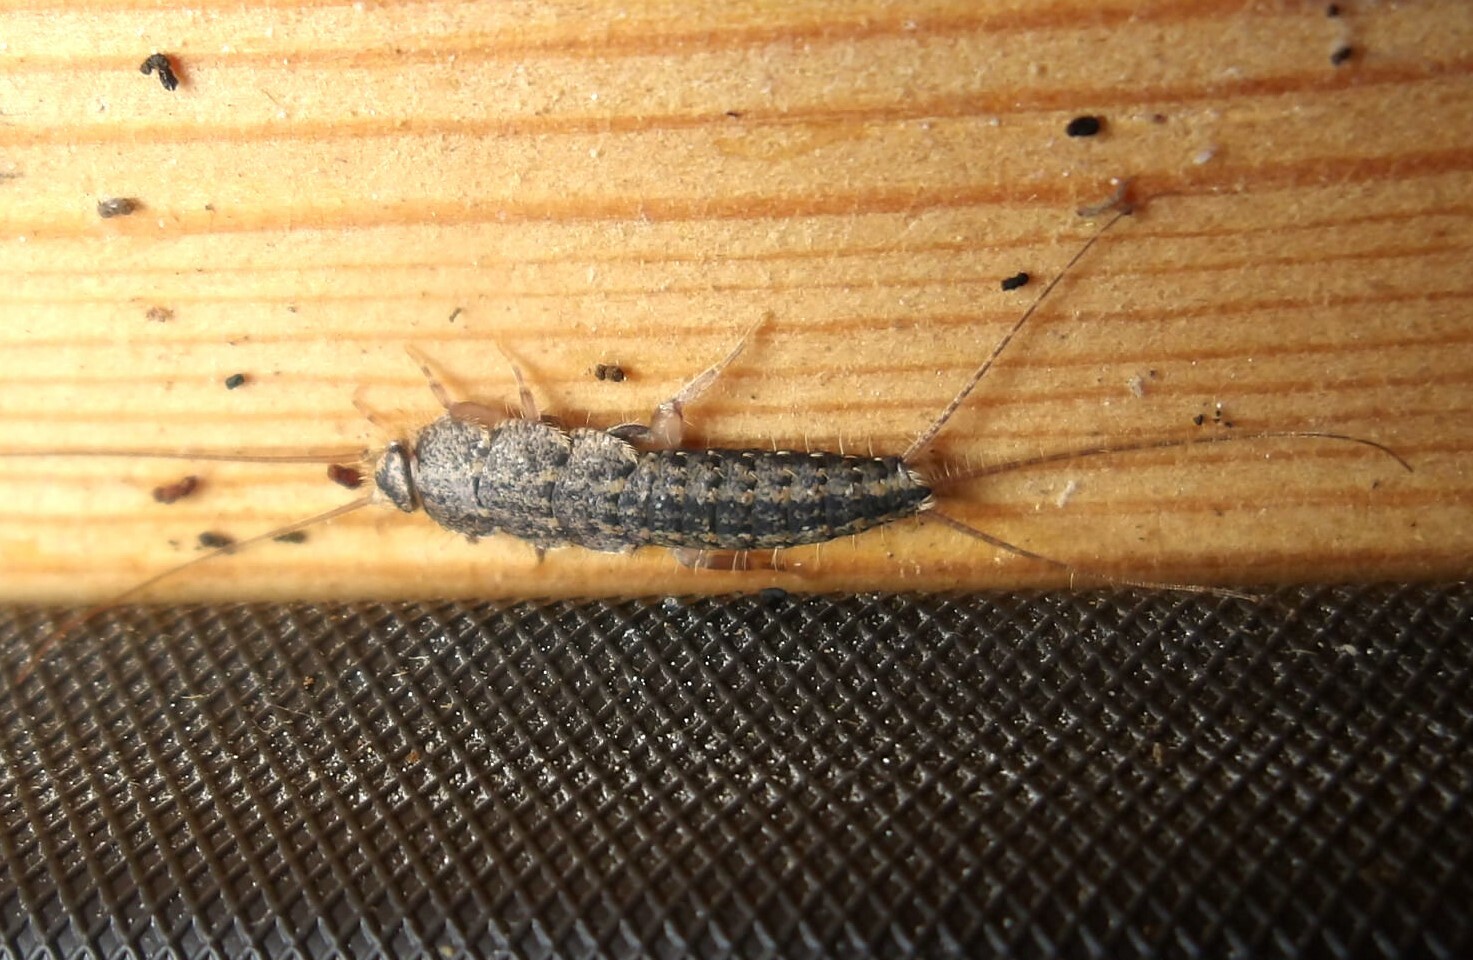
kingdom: Animalia
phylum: Arthropoda
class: Insecta
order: Zygentoma
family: Lepismatidae
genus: Ctenolepisma
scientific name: Ctenolepisma lineata
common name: Four-lined silverfish
